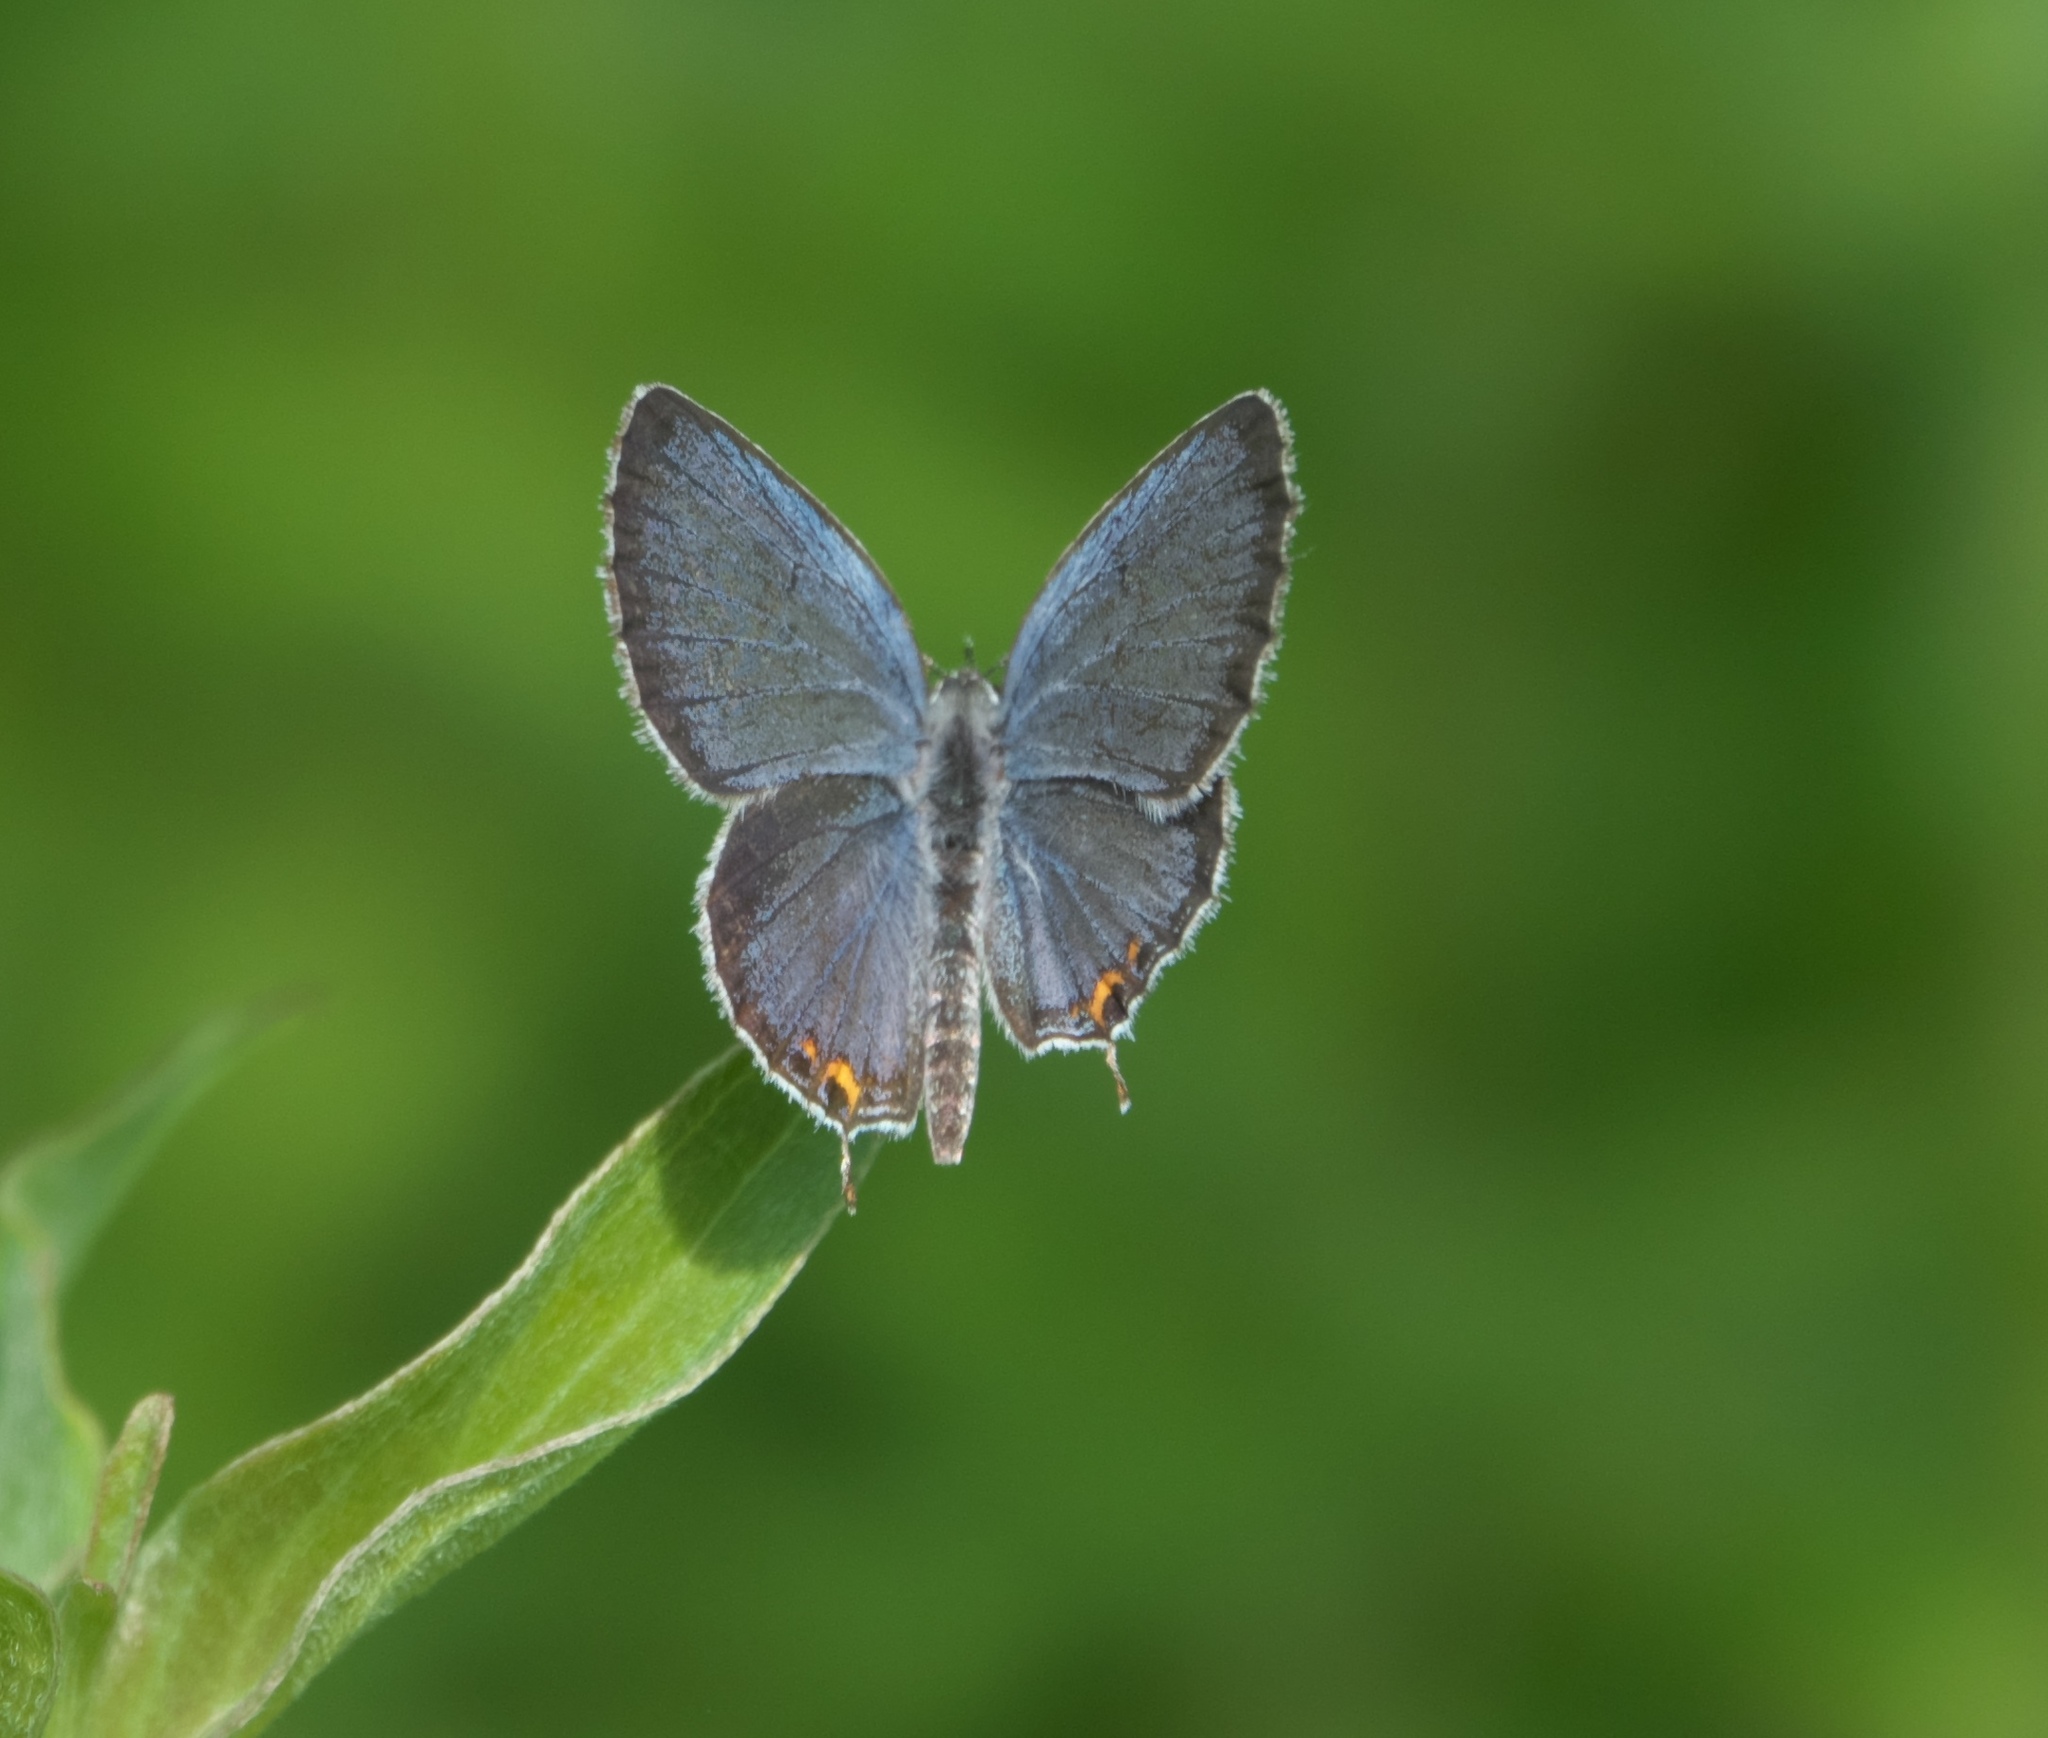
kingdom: Animalia
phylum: Arthropoda
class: Insecta
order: Lepidoptera
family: Lycaenidae
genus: Elkalyce
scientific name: Elkalyce comyntas
